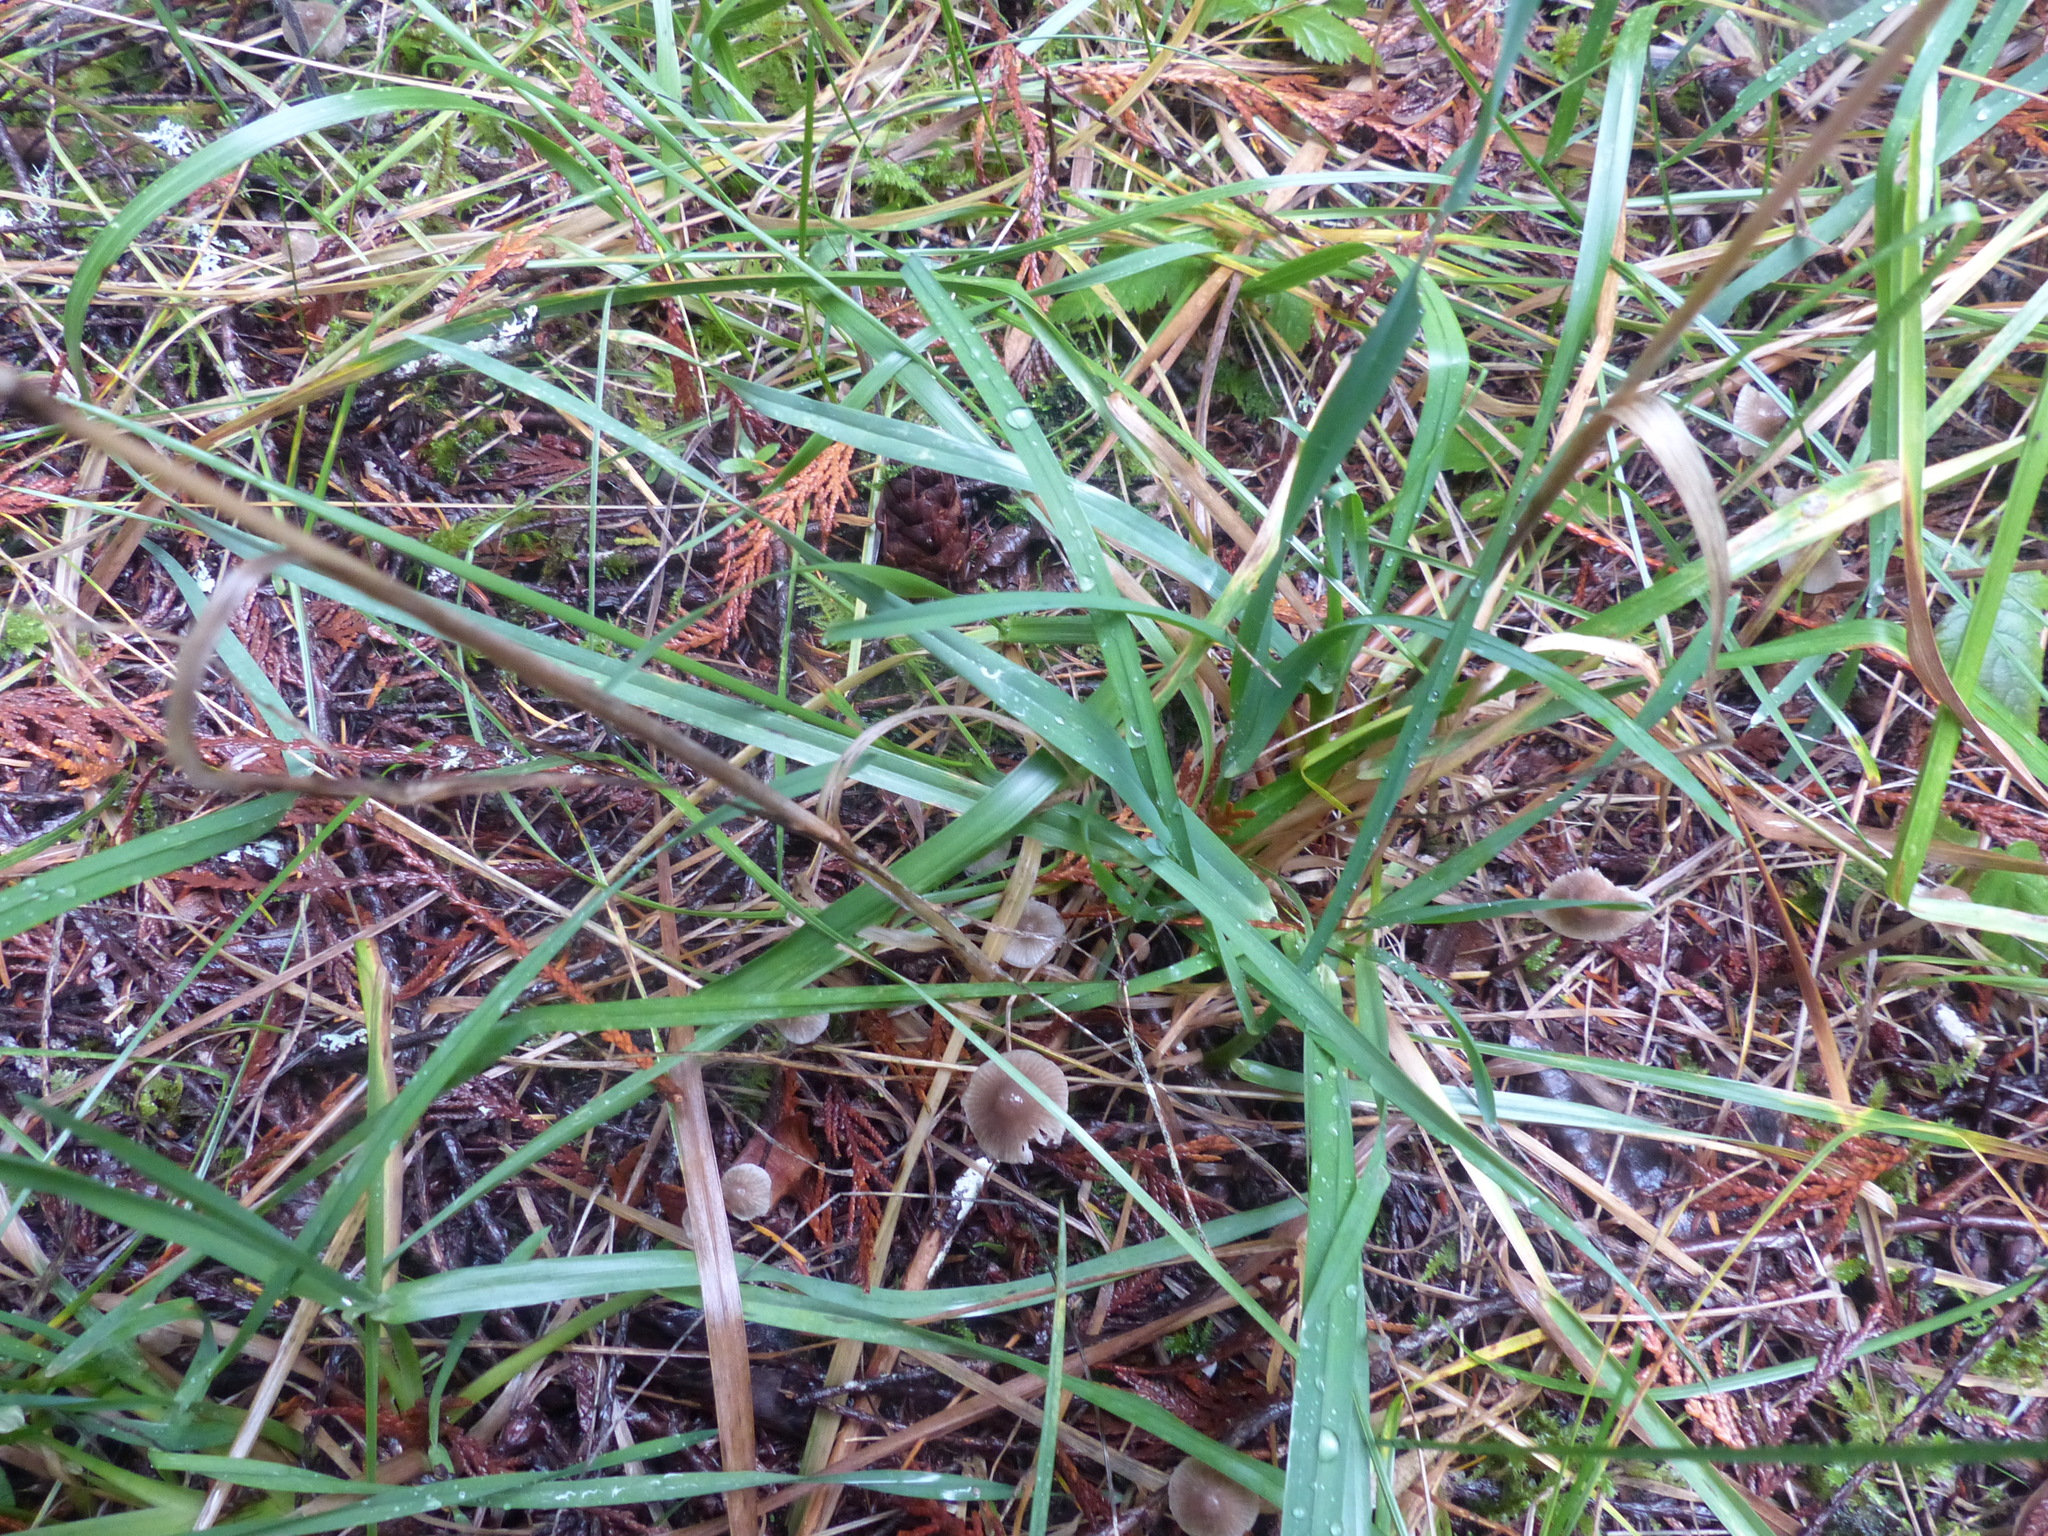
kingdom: Plantae
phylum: Tracheophyta
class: Liliopsida
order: Poales
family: Poaceae
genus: Dactylis
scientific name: Dactylis glomerata
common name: Orchardgrass
